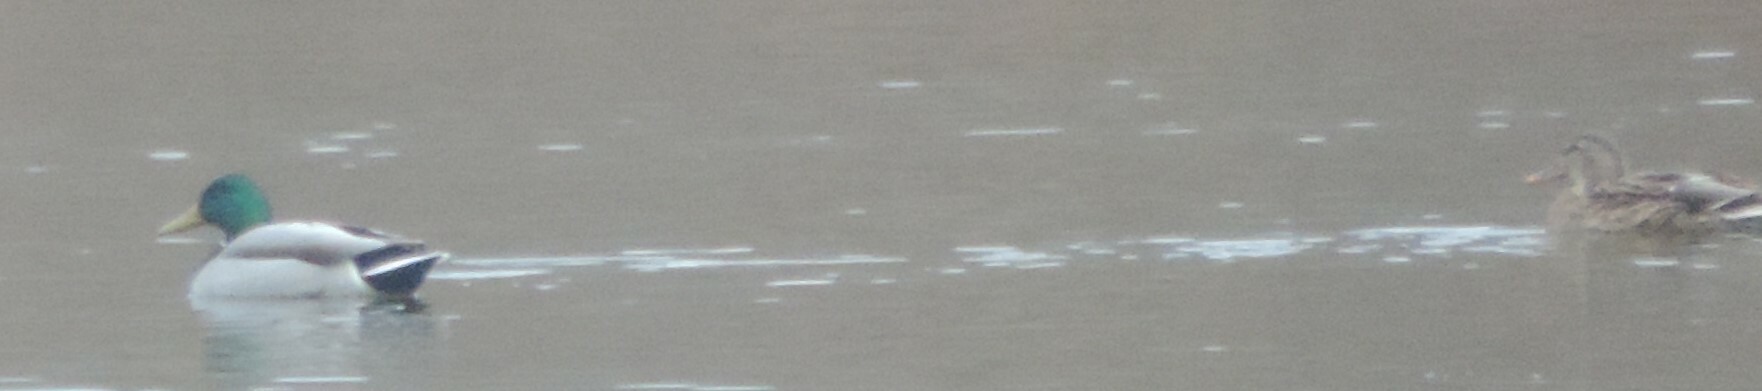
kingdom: Animalia
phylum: Chordata
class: Aves
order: Anseriformes
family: Anatidae
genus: Anas
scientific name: Anas platyrhynchos
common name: Mallard
